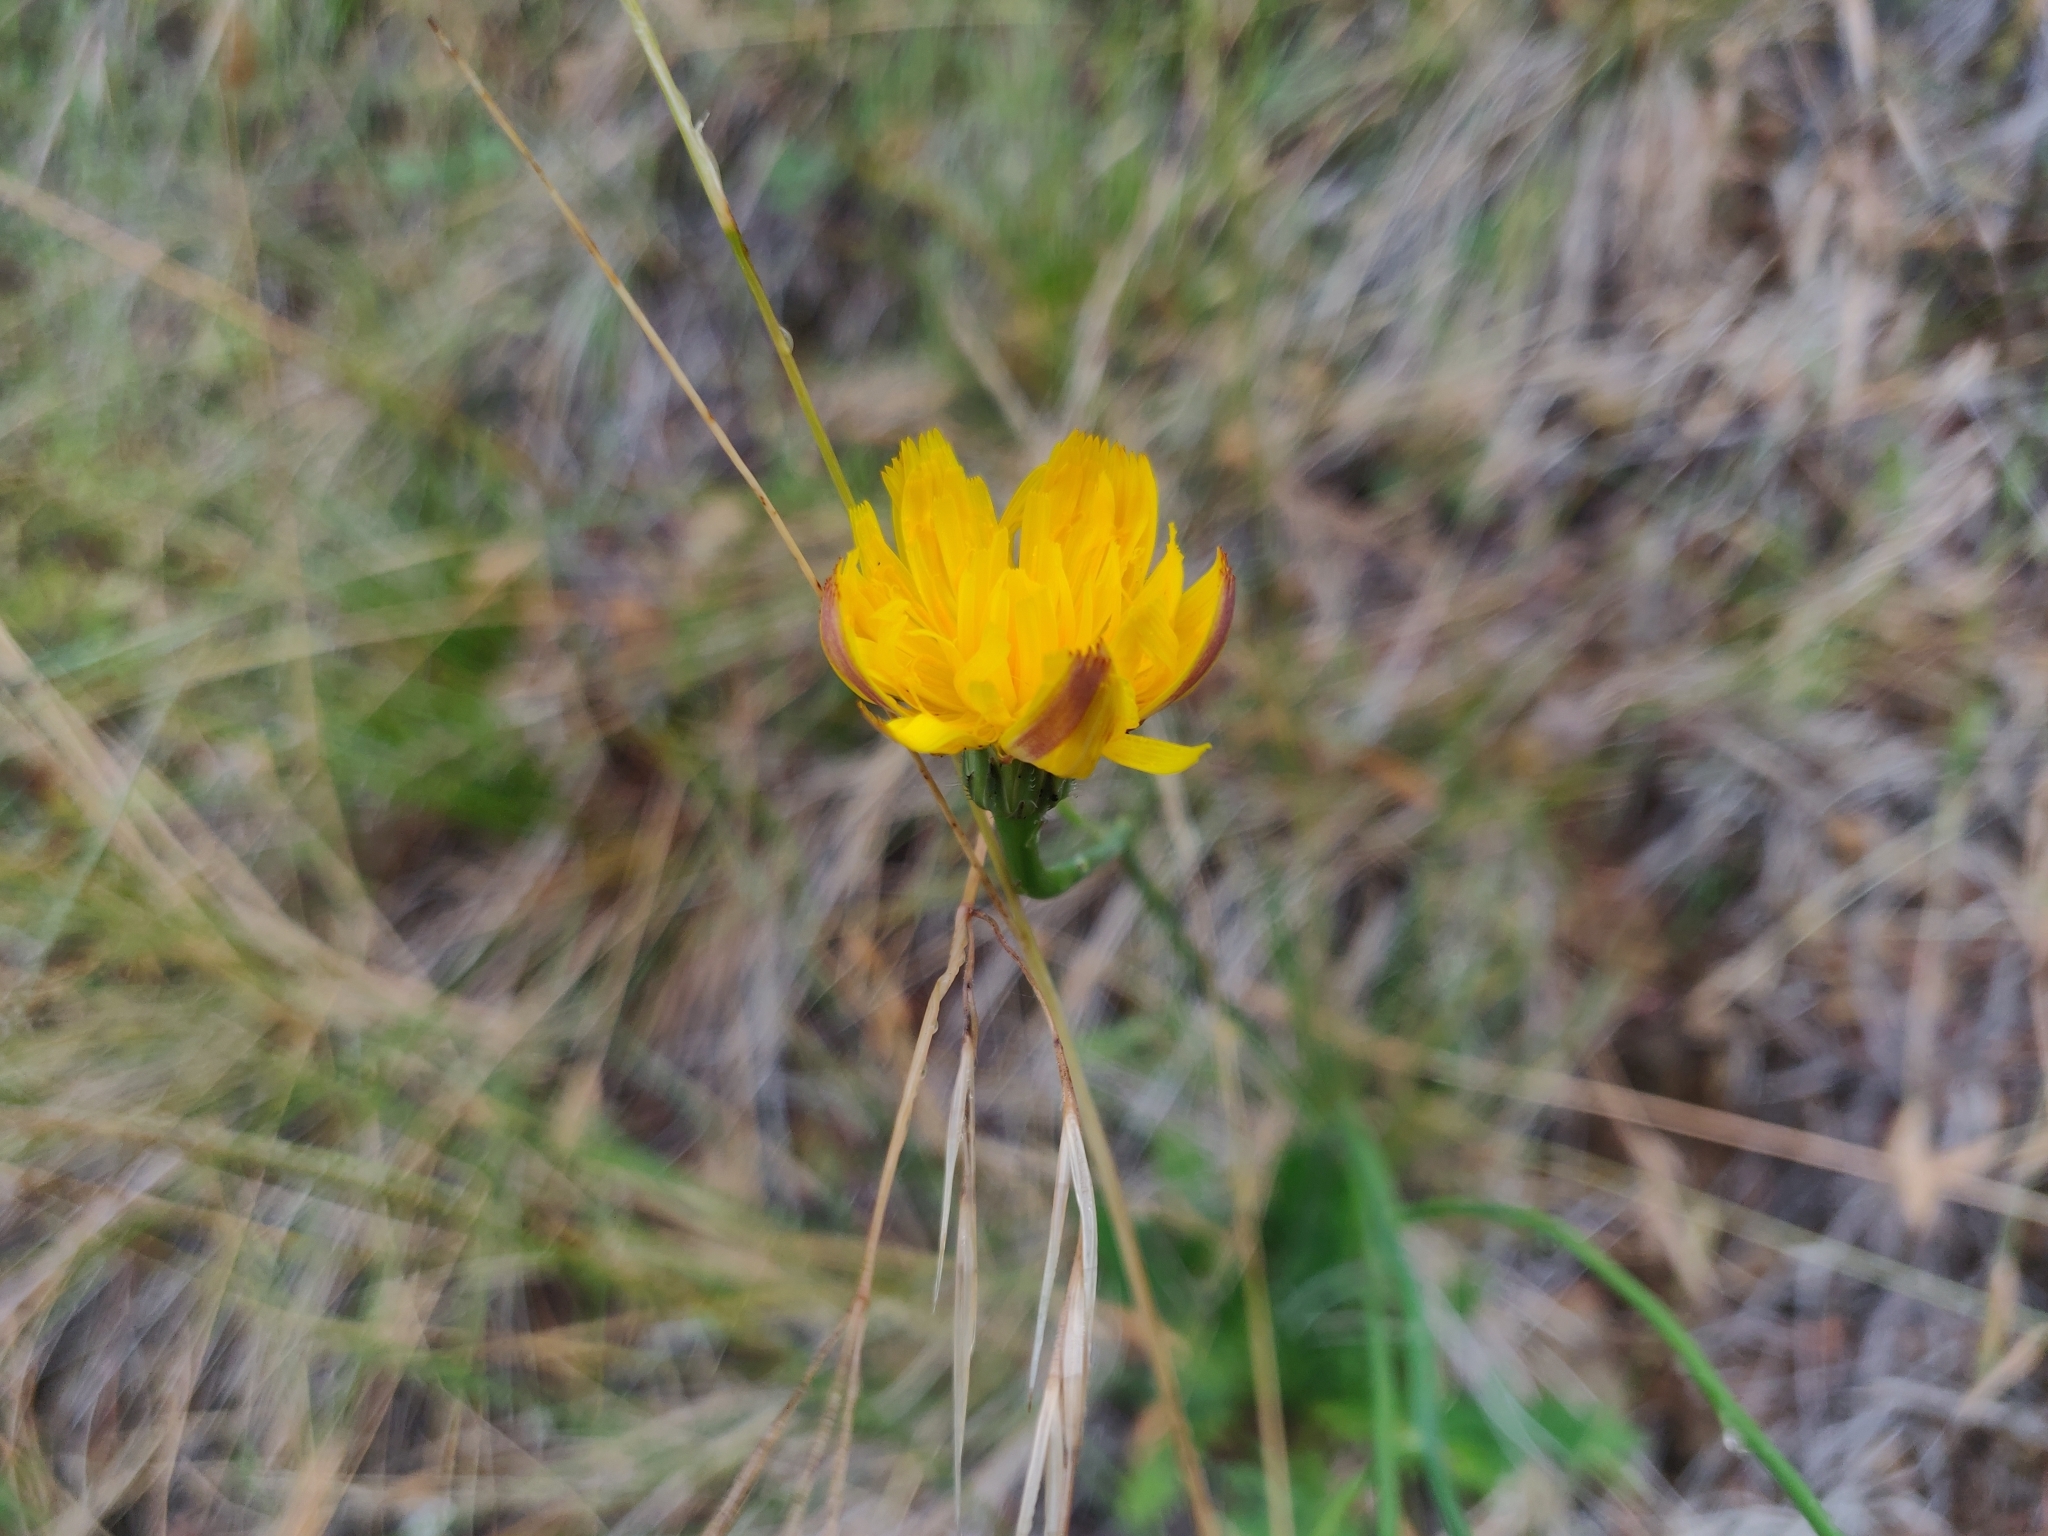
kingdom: Plantae
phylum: Tracheophyta
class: Magnoliopsida
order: Asterales
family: Asteraceae
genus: Hypochaeris
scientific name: Hypochaeris radicata
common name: Flatweed
